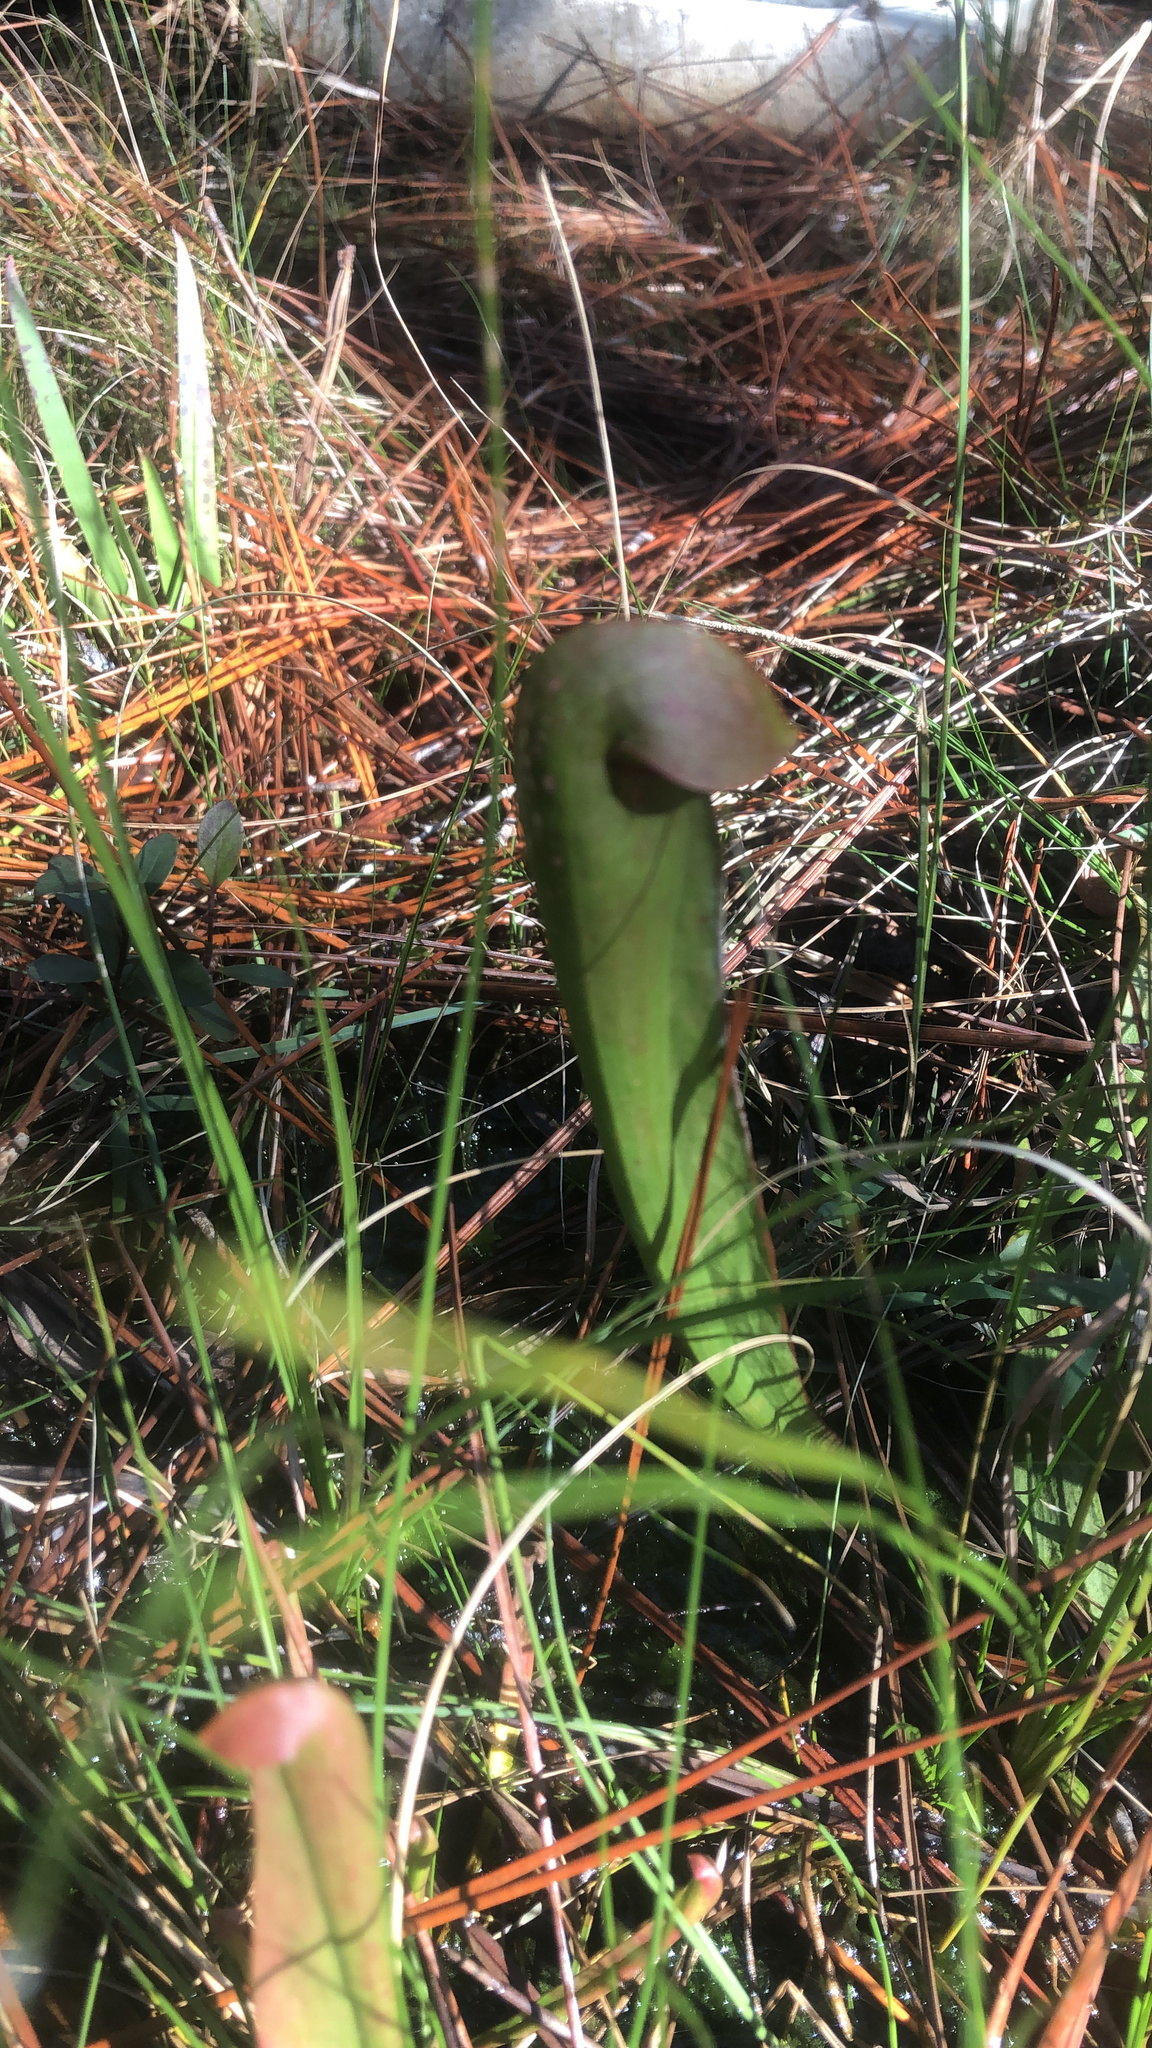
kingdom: Plantae
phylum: Tracheophyta
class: Magnoliopsida
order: Ericales
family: Sarraceniaceae
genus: Sarracenia
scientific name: Sarracenia minor
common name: Rainhat-trumpet
